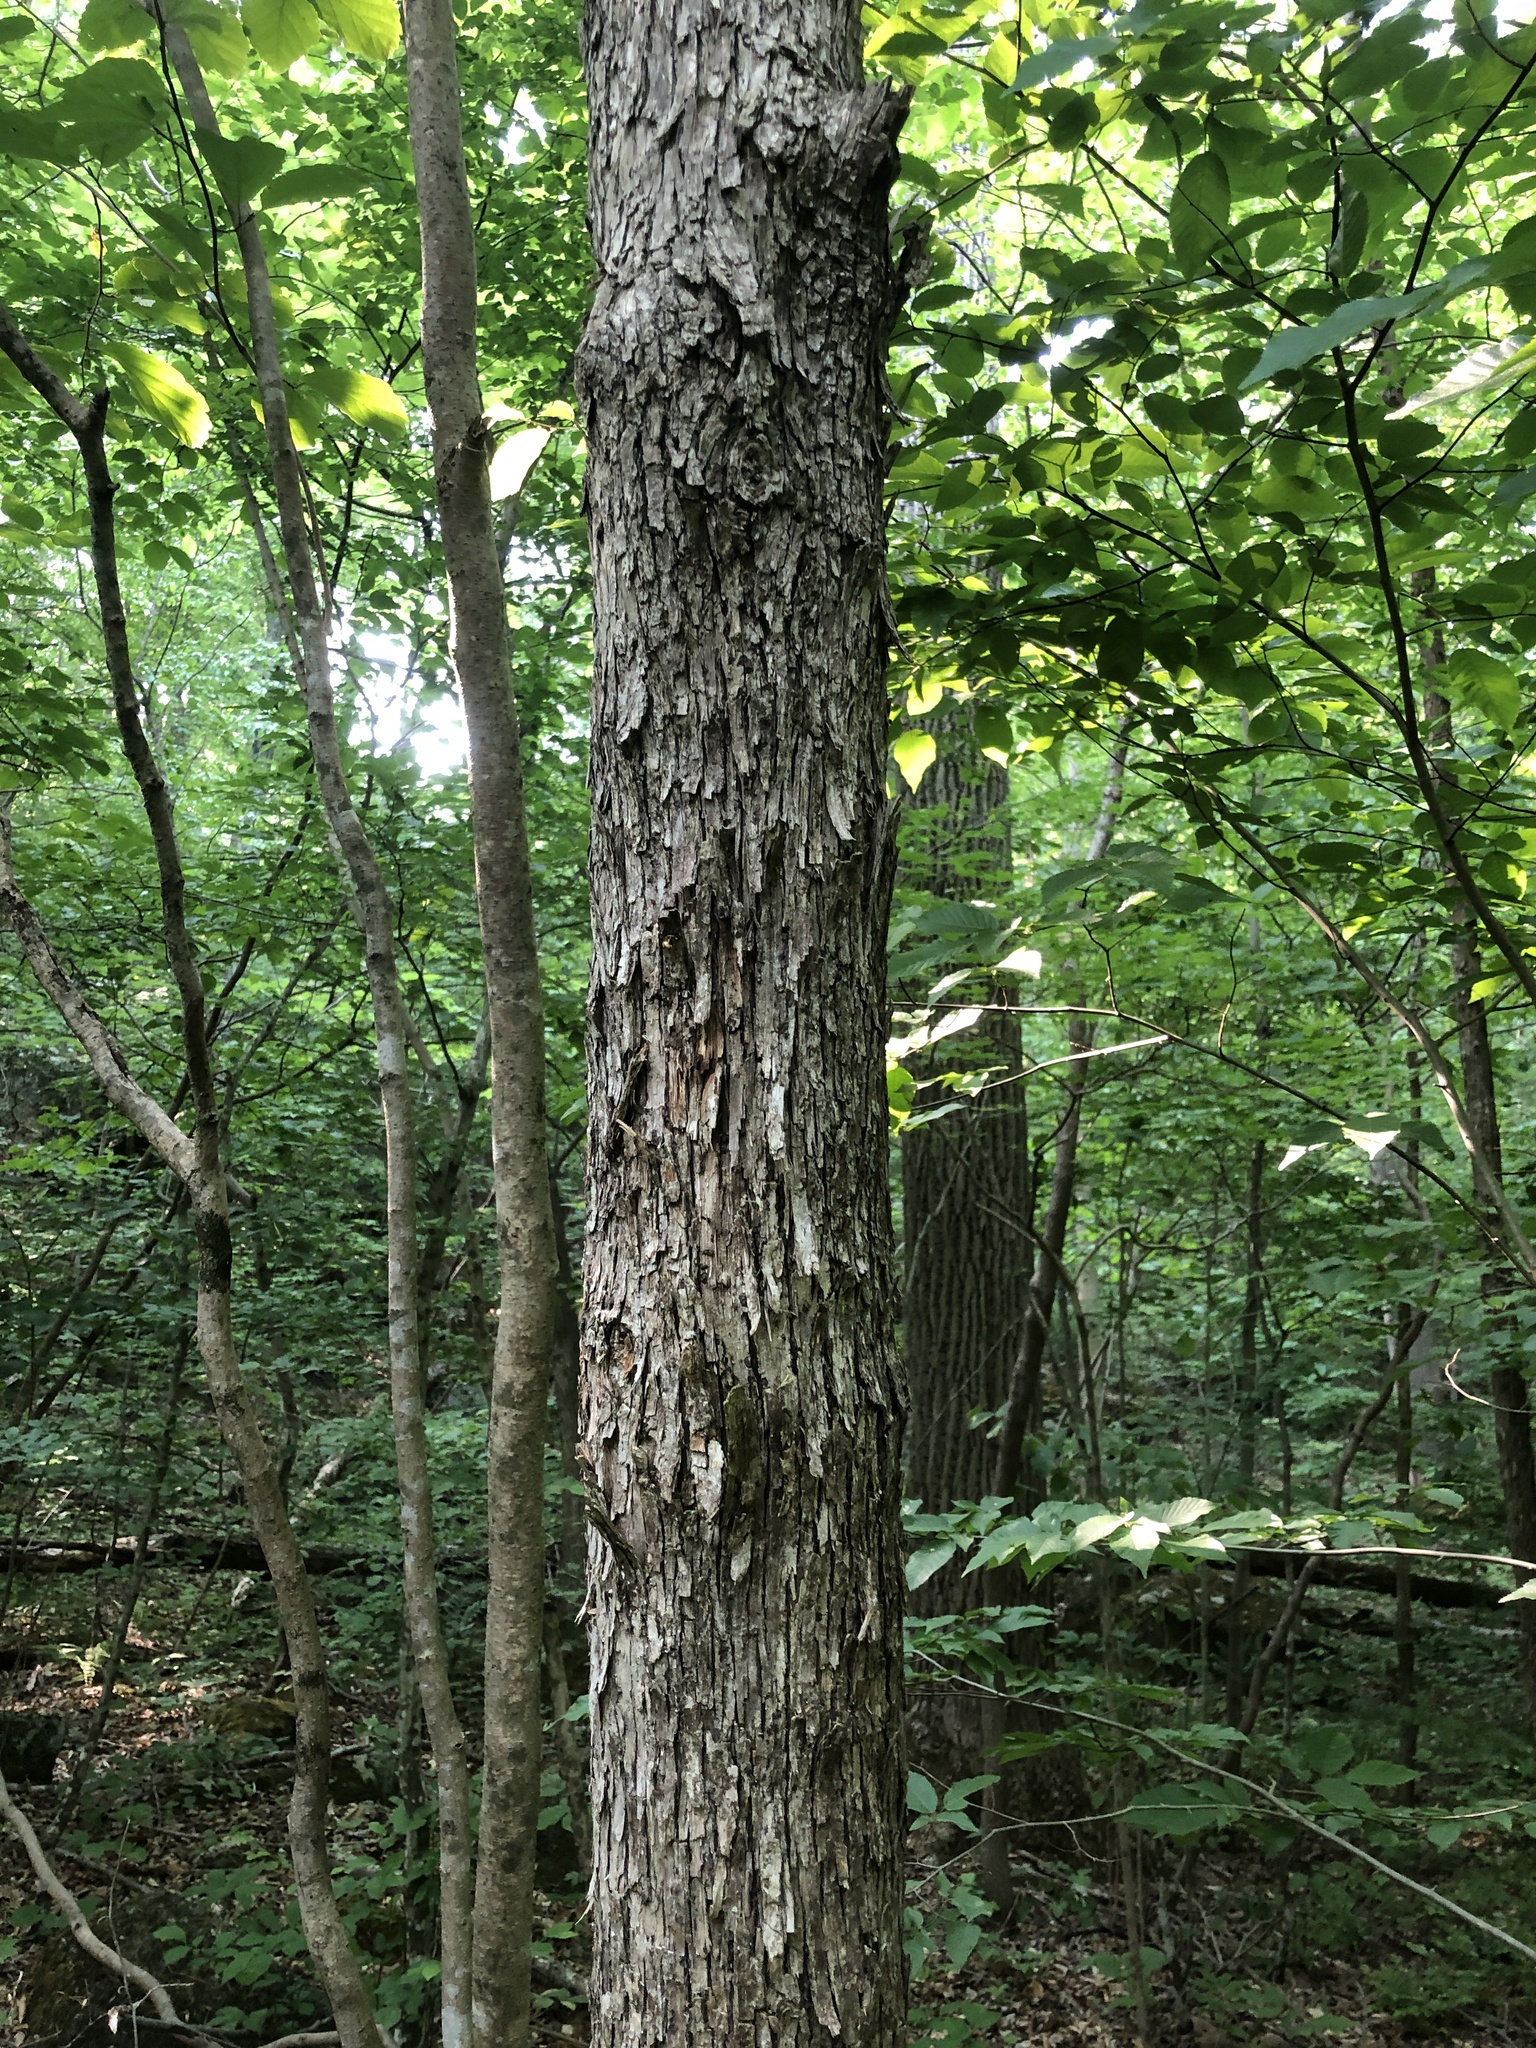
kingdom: Plantae
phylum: Tracheophyta
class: Magnoliopsida
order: Fagales
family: Betulaceae
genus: Ostrya
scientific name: Ostrya virginiana
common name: Ironwood
